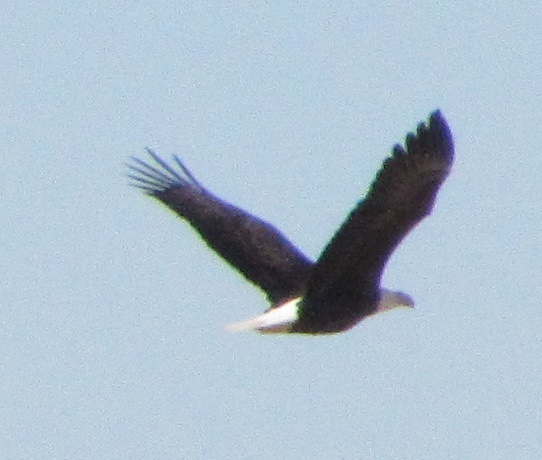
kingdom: Animalia
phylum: Chordata
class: Aves
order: Accipitriformes
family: Accipitridae
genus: Haliaeetus
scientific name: Haliaeetus leucocephalus
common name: Bald eagle
